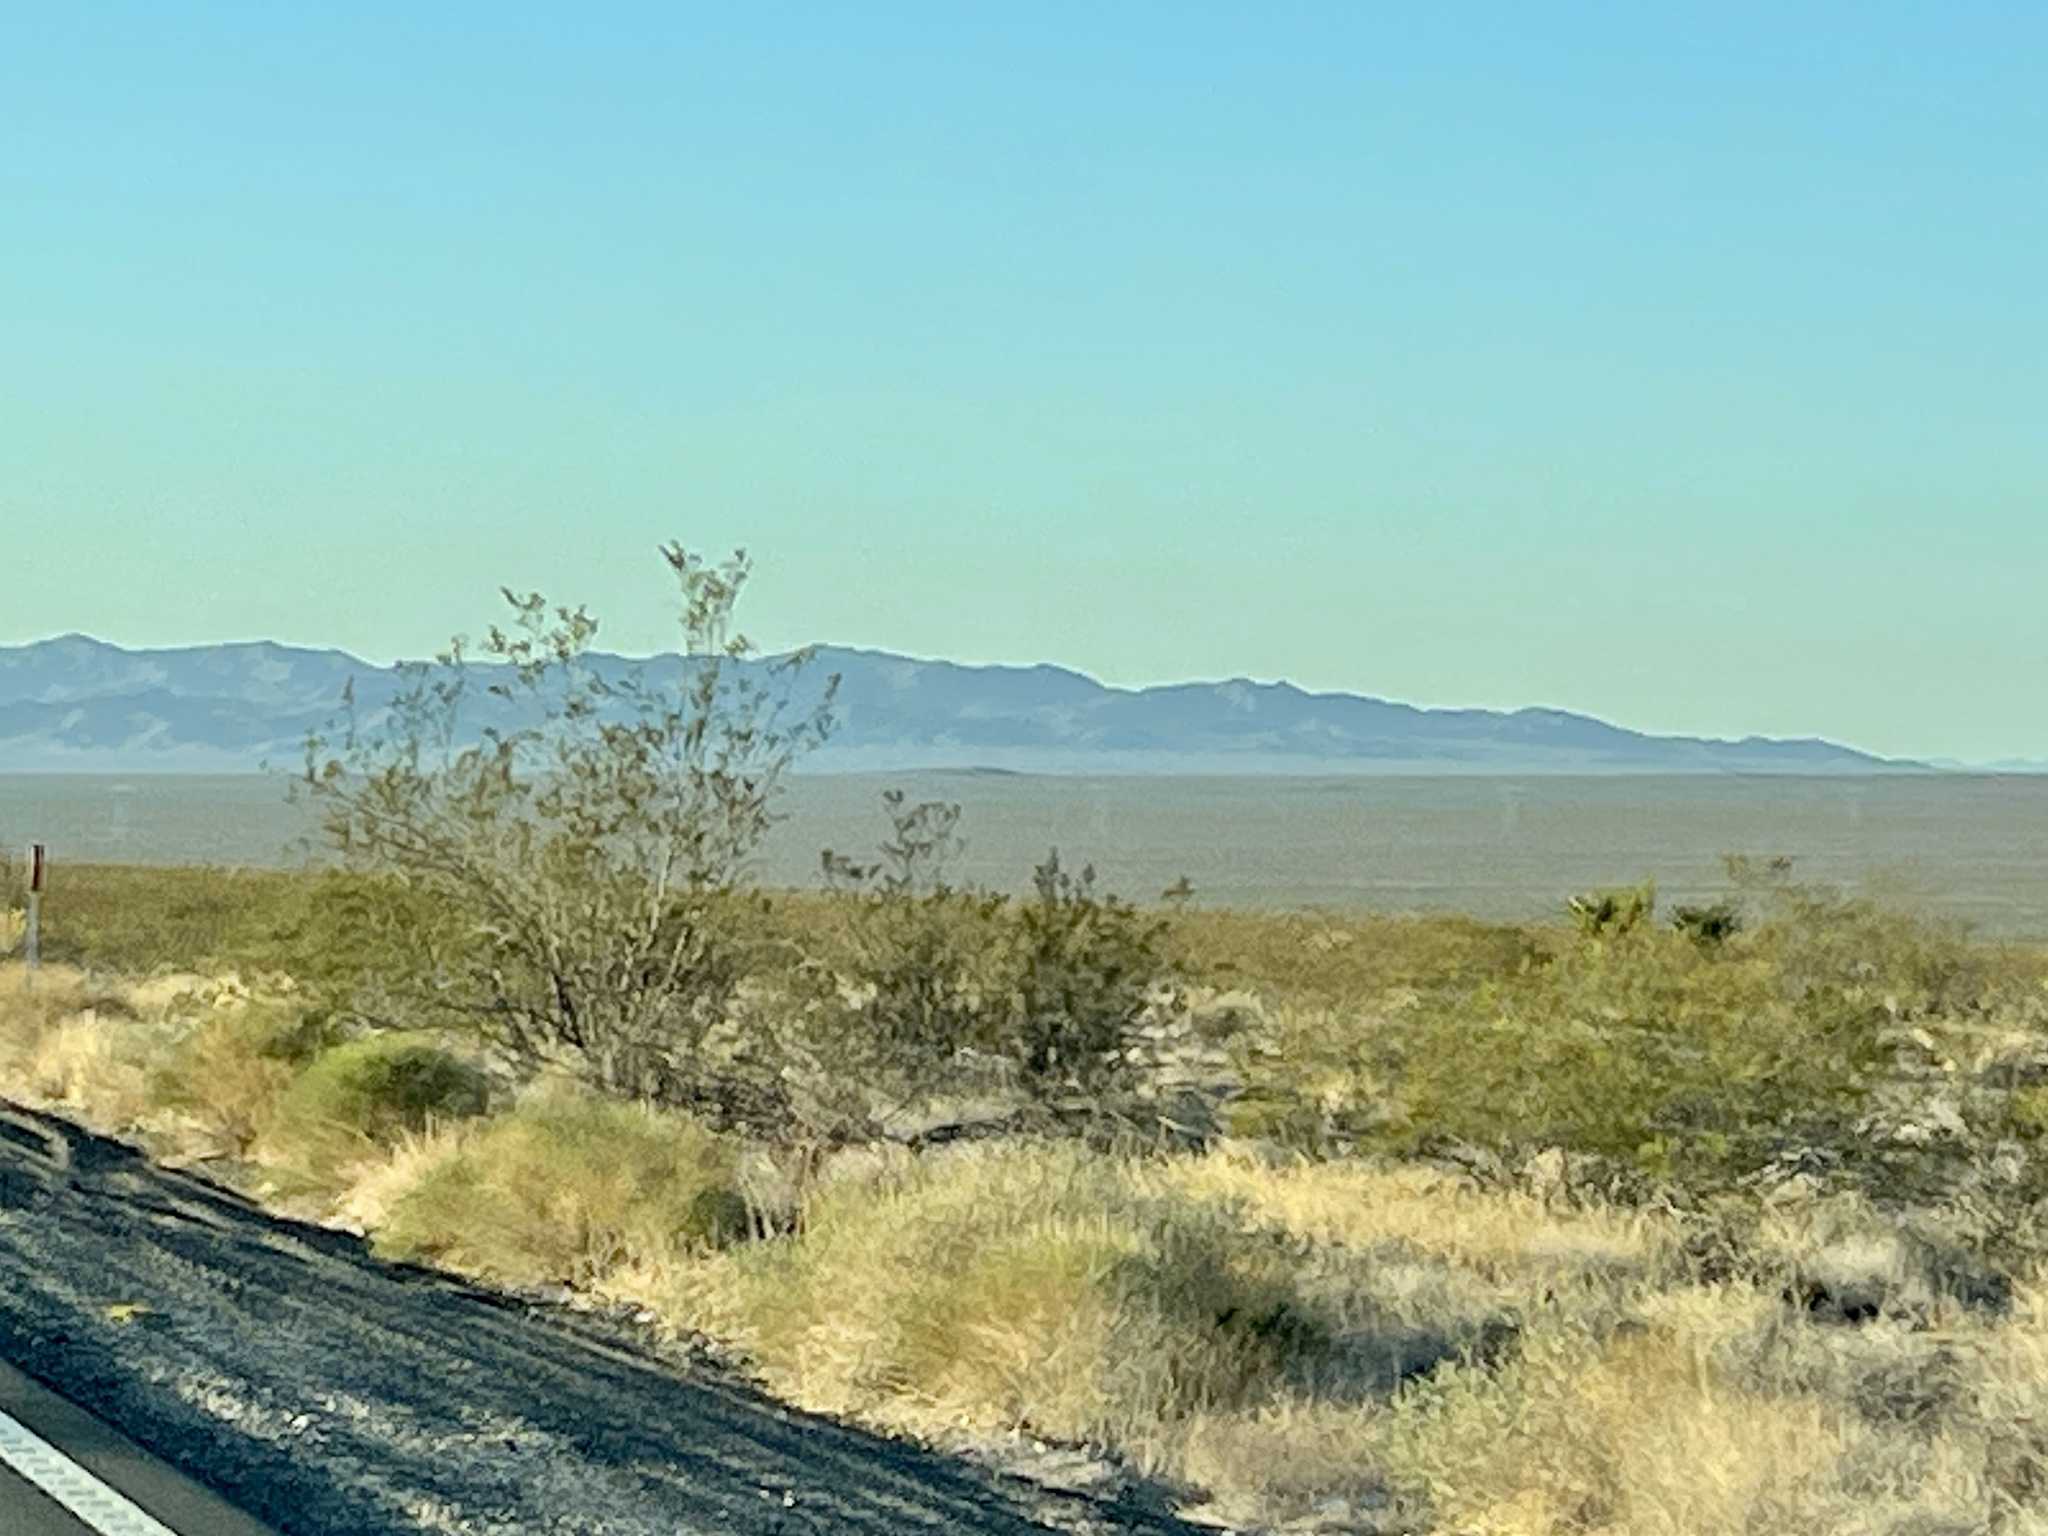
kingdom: Plantae
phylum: Tracheophyta
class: Magnoliopsida
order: Zygophyllales
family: Zygophyllaceae
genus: Larrea
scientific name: Larrea tridentata
